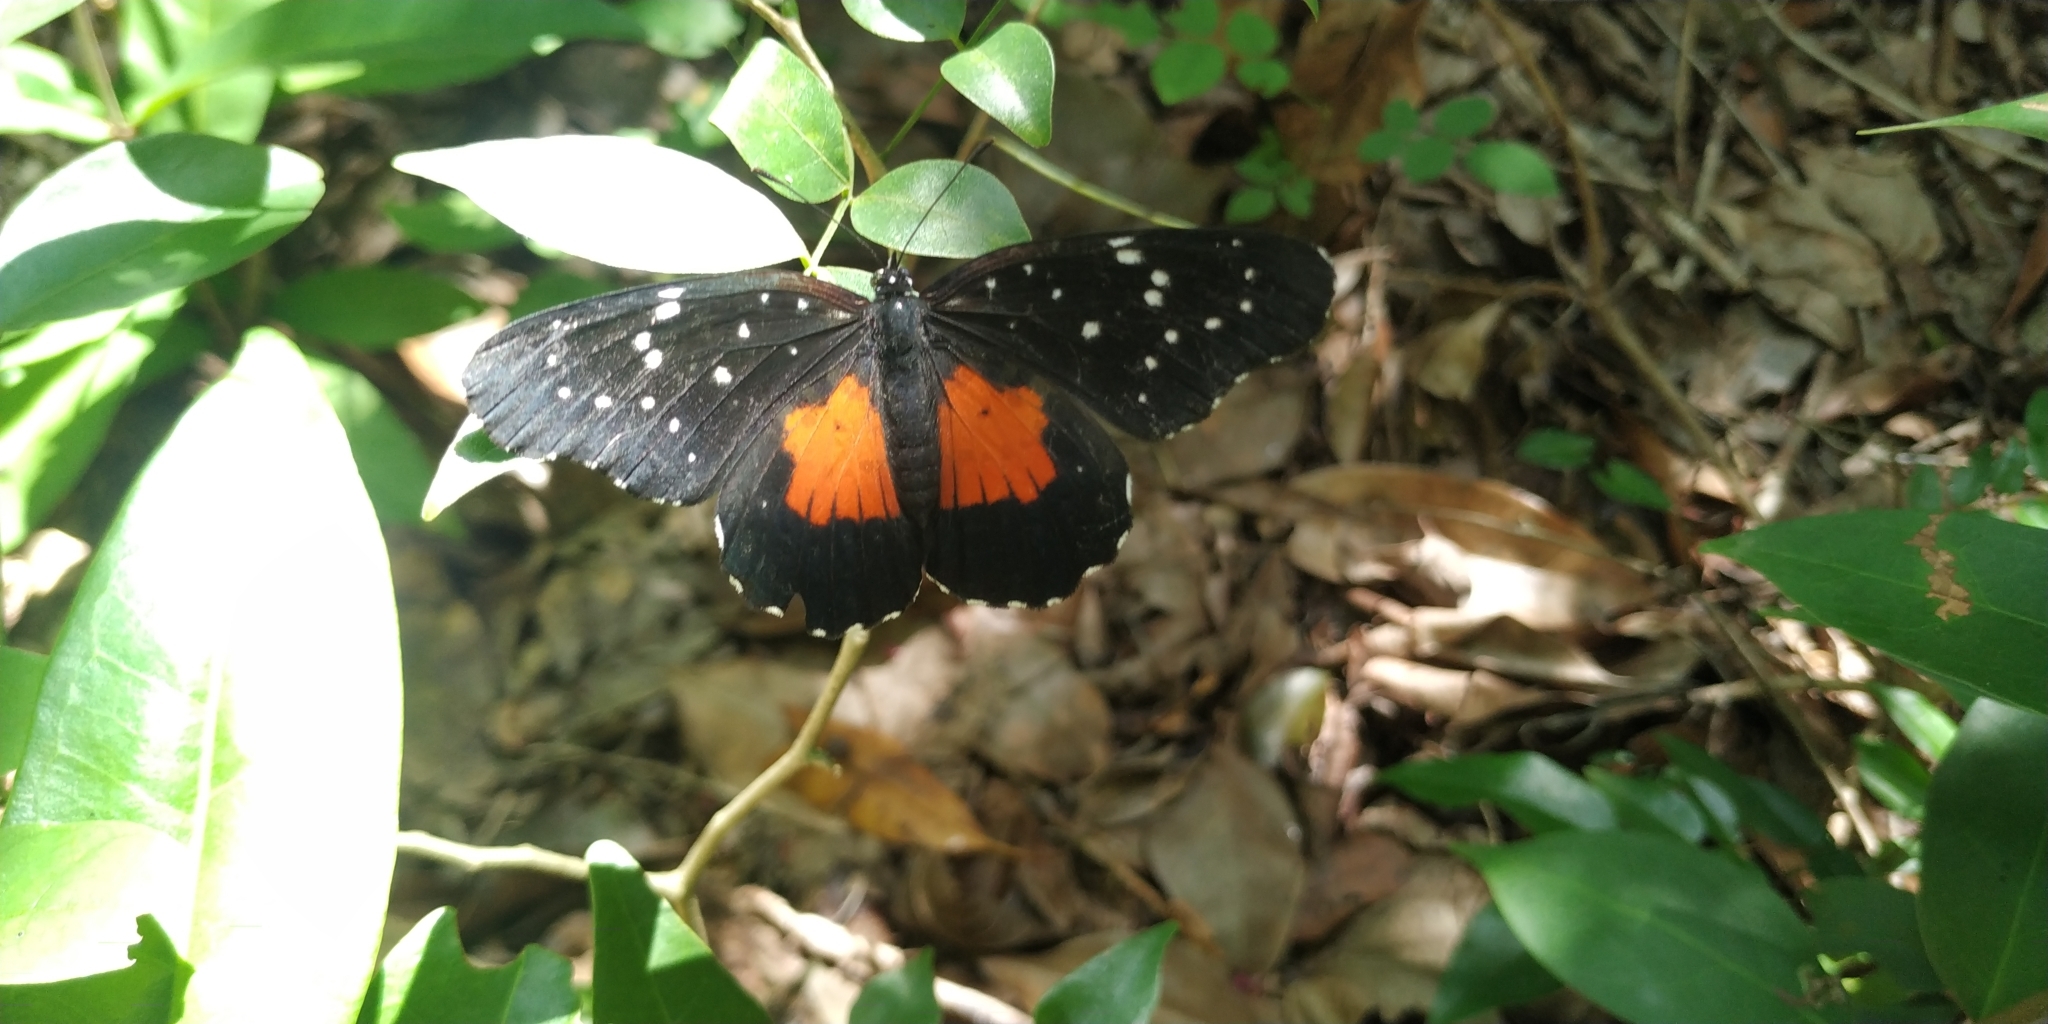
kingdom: Animalia
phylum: Arthropoda
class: Insecta
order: Lepidoptera
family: Nymphalidae
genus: Chlosyne
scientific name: Chlosyne janais
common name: Crimson patch
